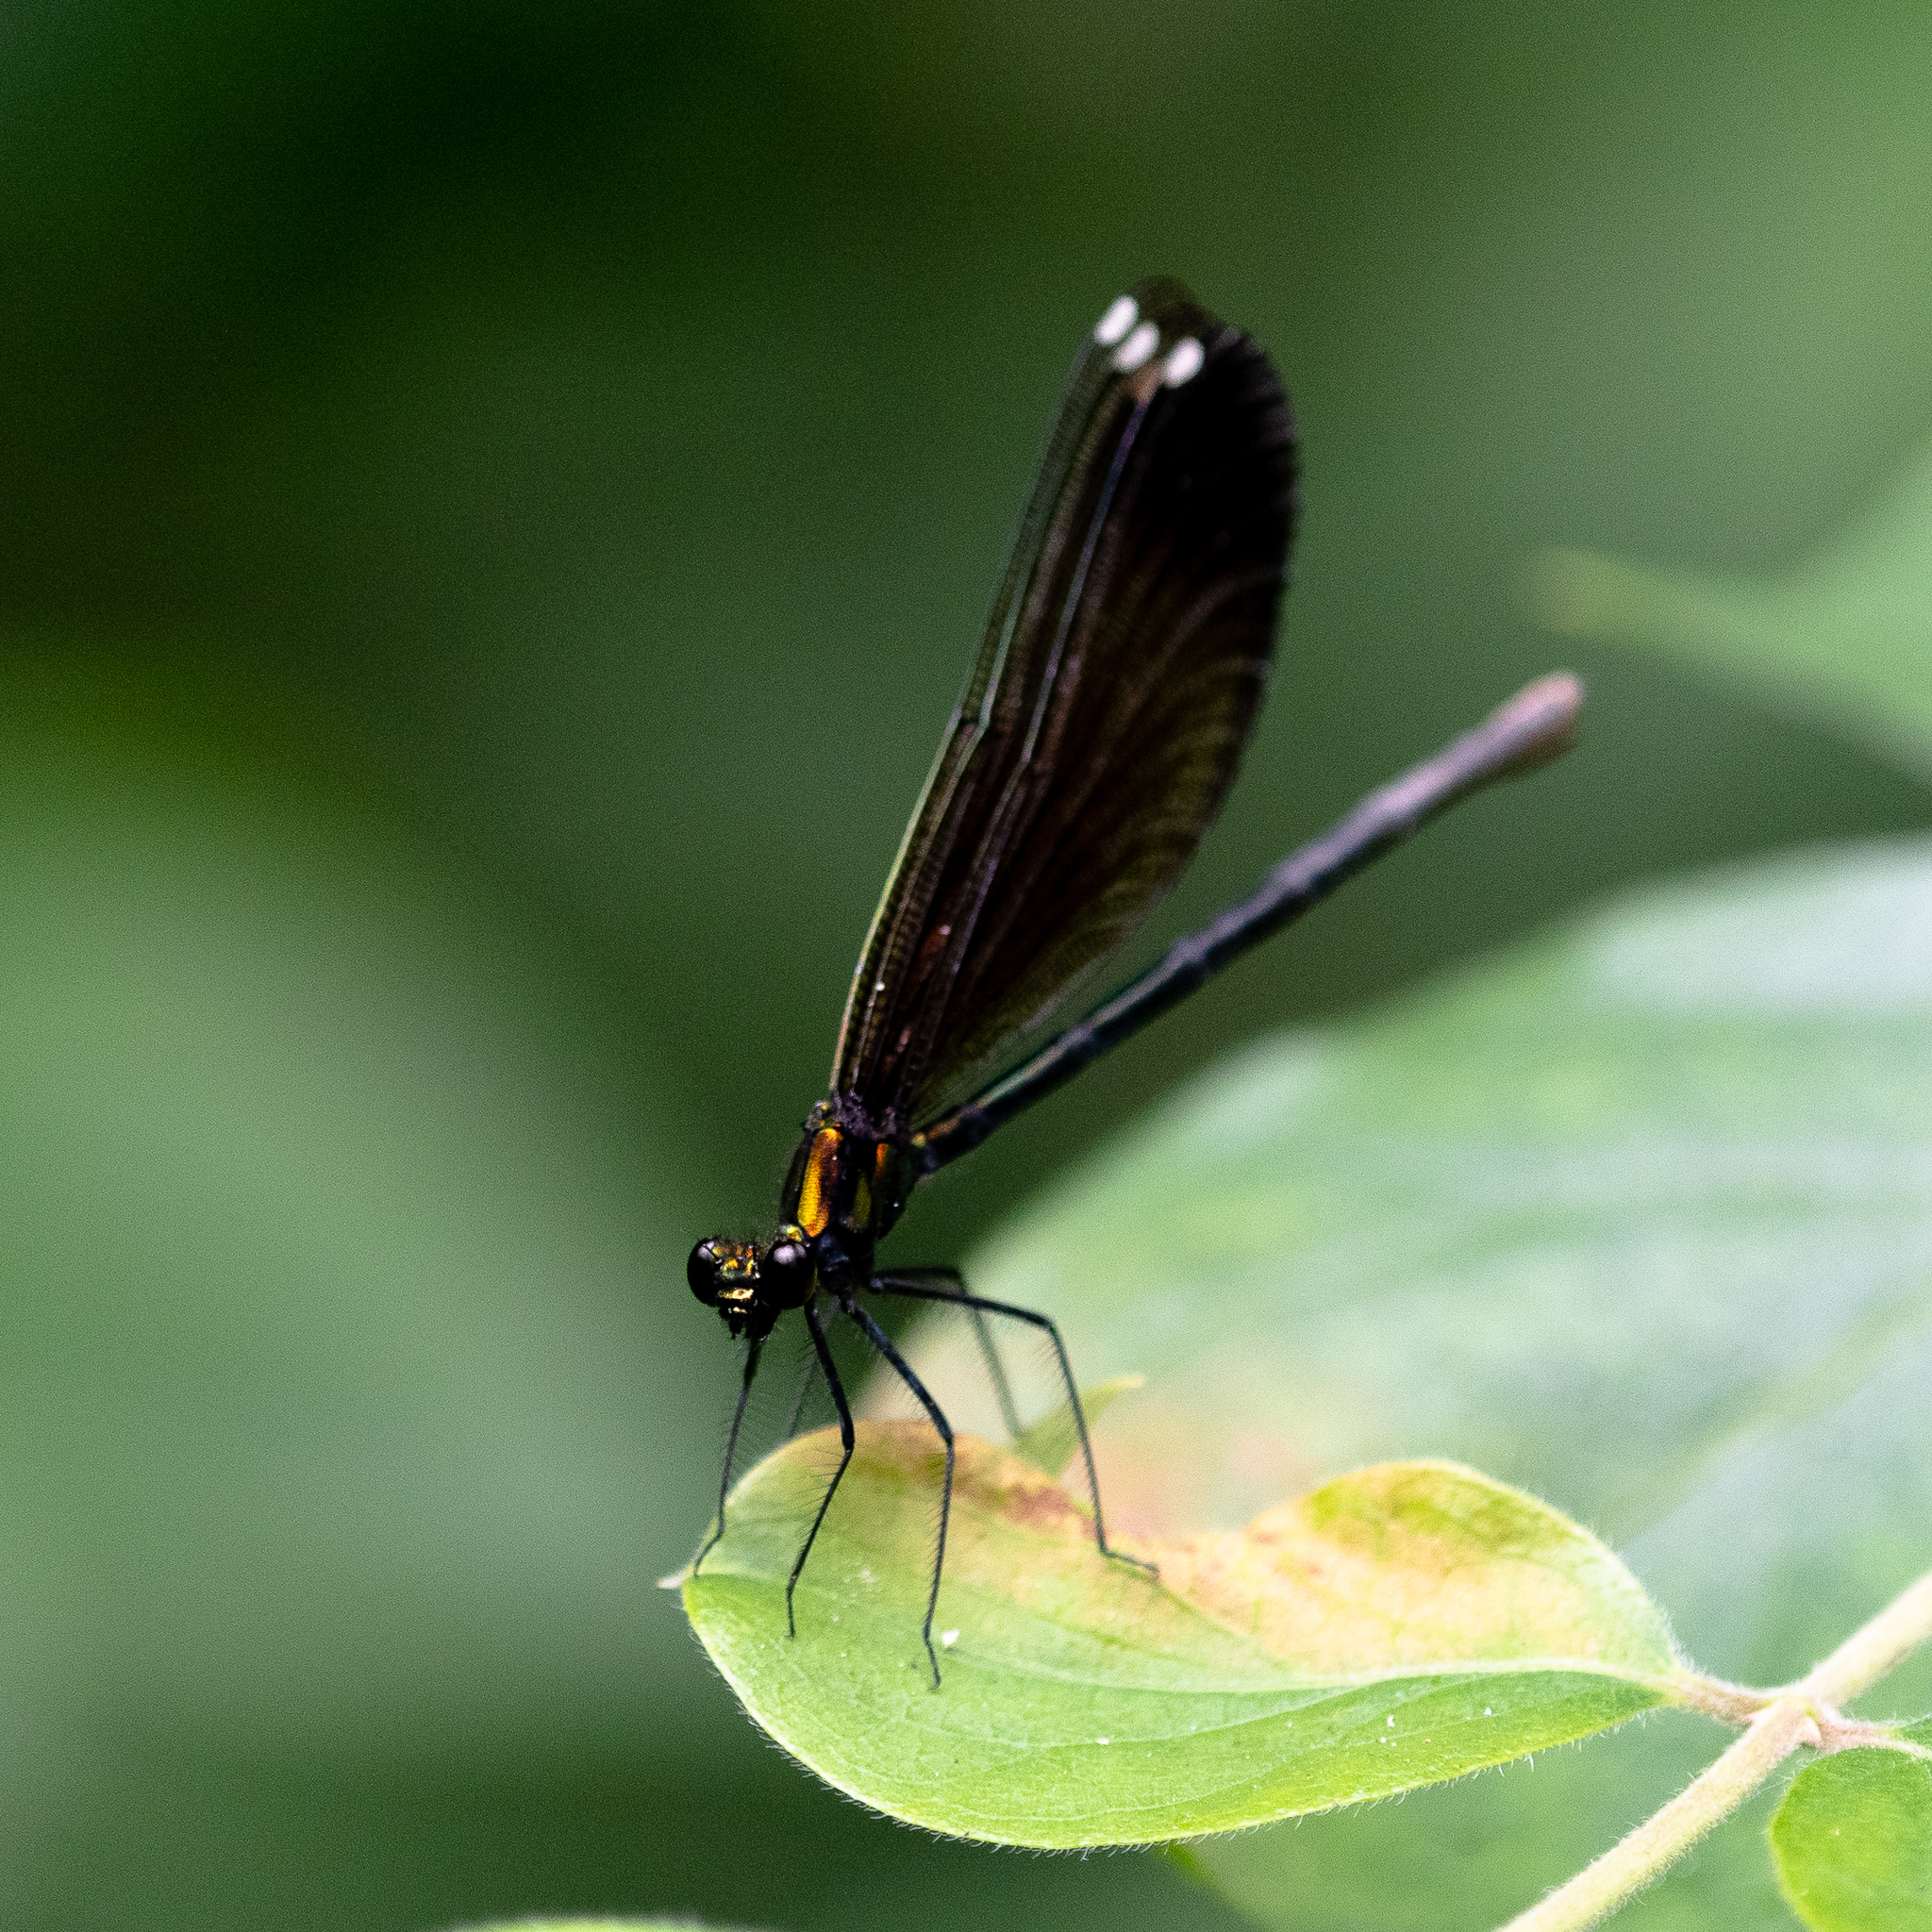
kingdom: Animalia
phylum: Arthropoda
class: Insecta
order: Odonata
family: Calopterygidae
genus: Calopteryx
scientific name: Calopteryx maculata
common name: Ebony jewelwing
